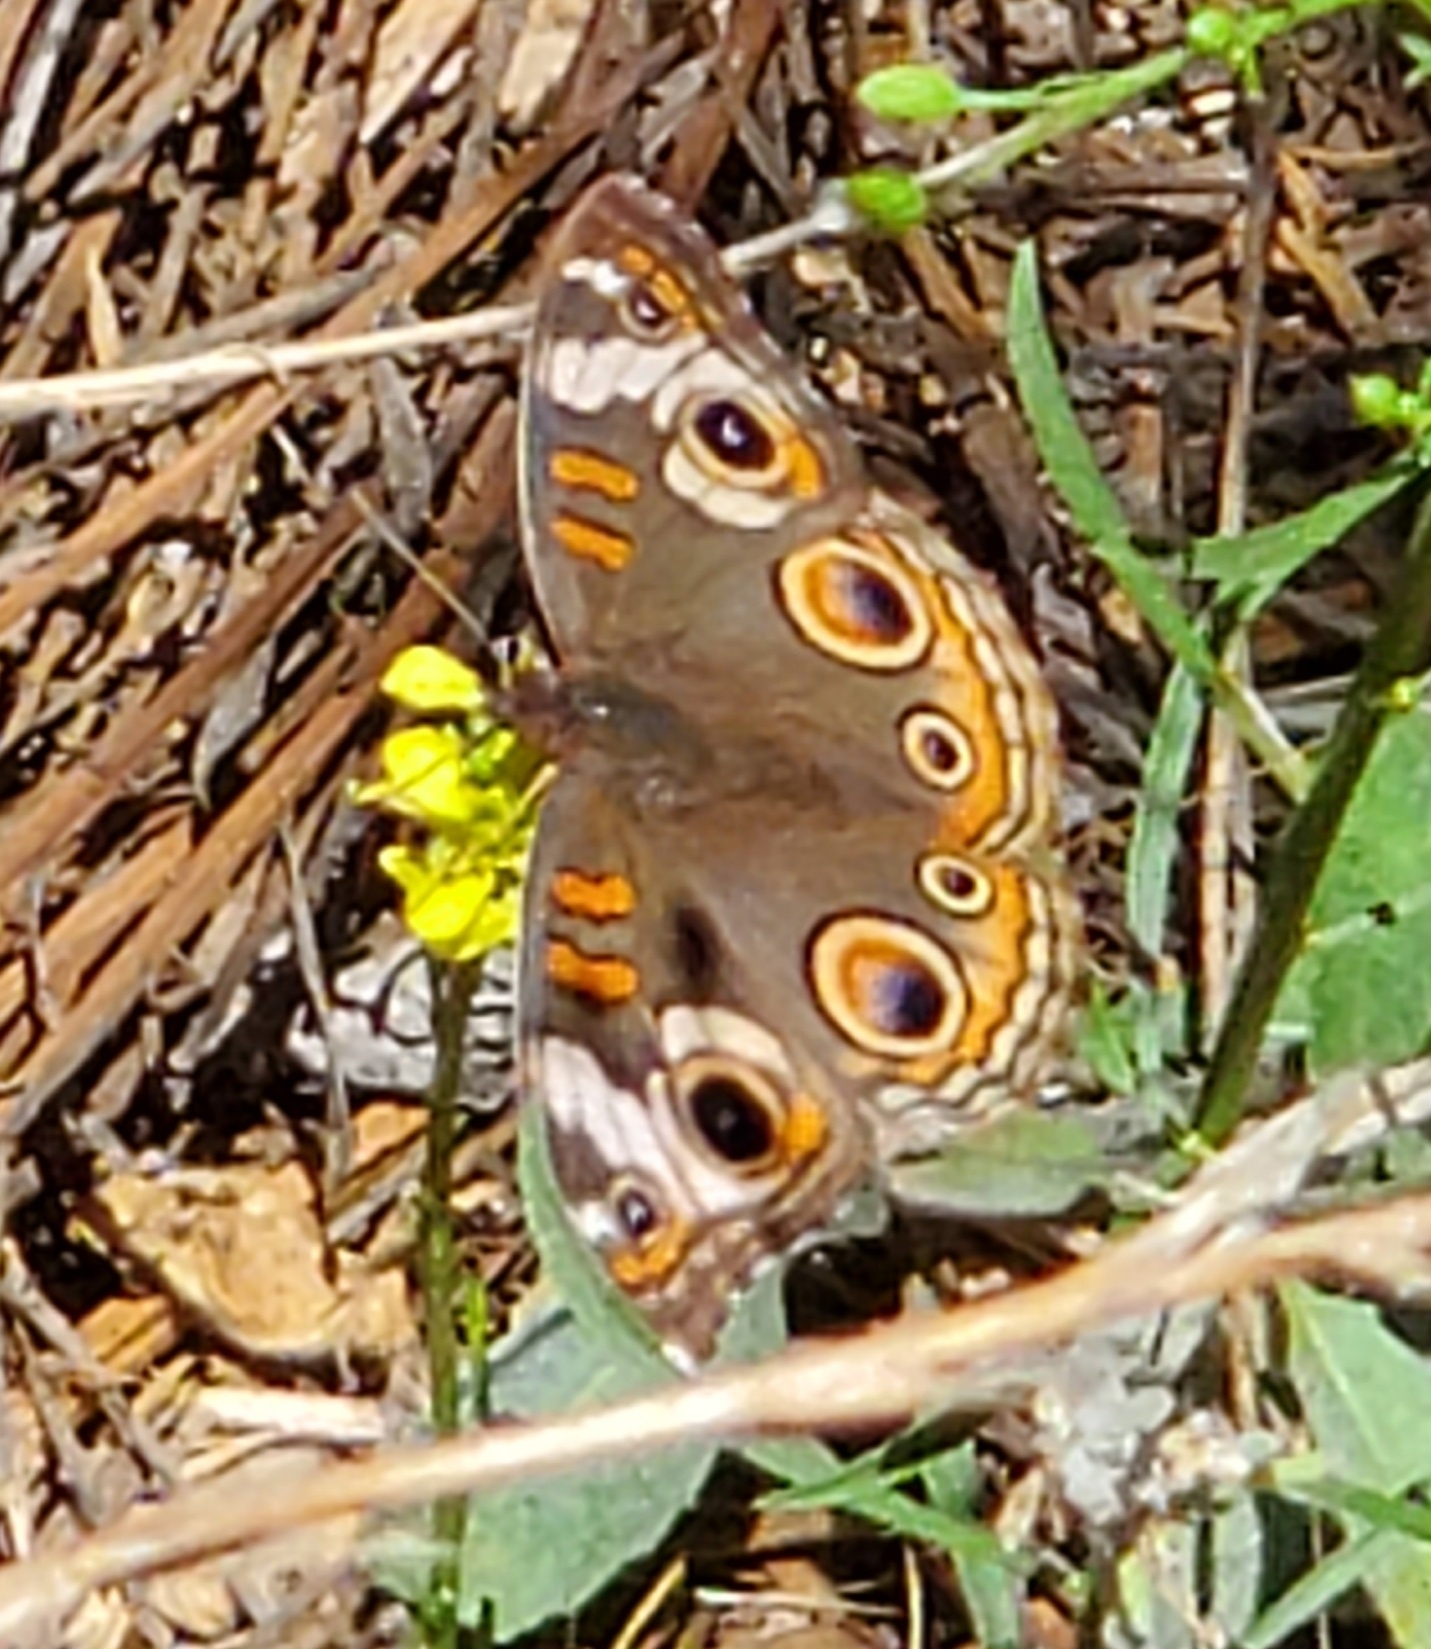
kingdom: Animalia
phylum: Arthropoda
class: Insecta
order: Lepidoptera
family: Nymphalidae
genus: Junonia
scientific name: Junonia grisea
